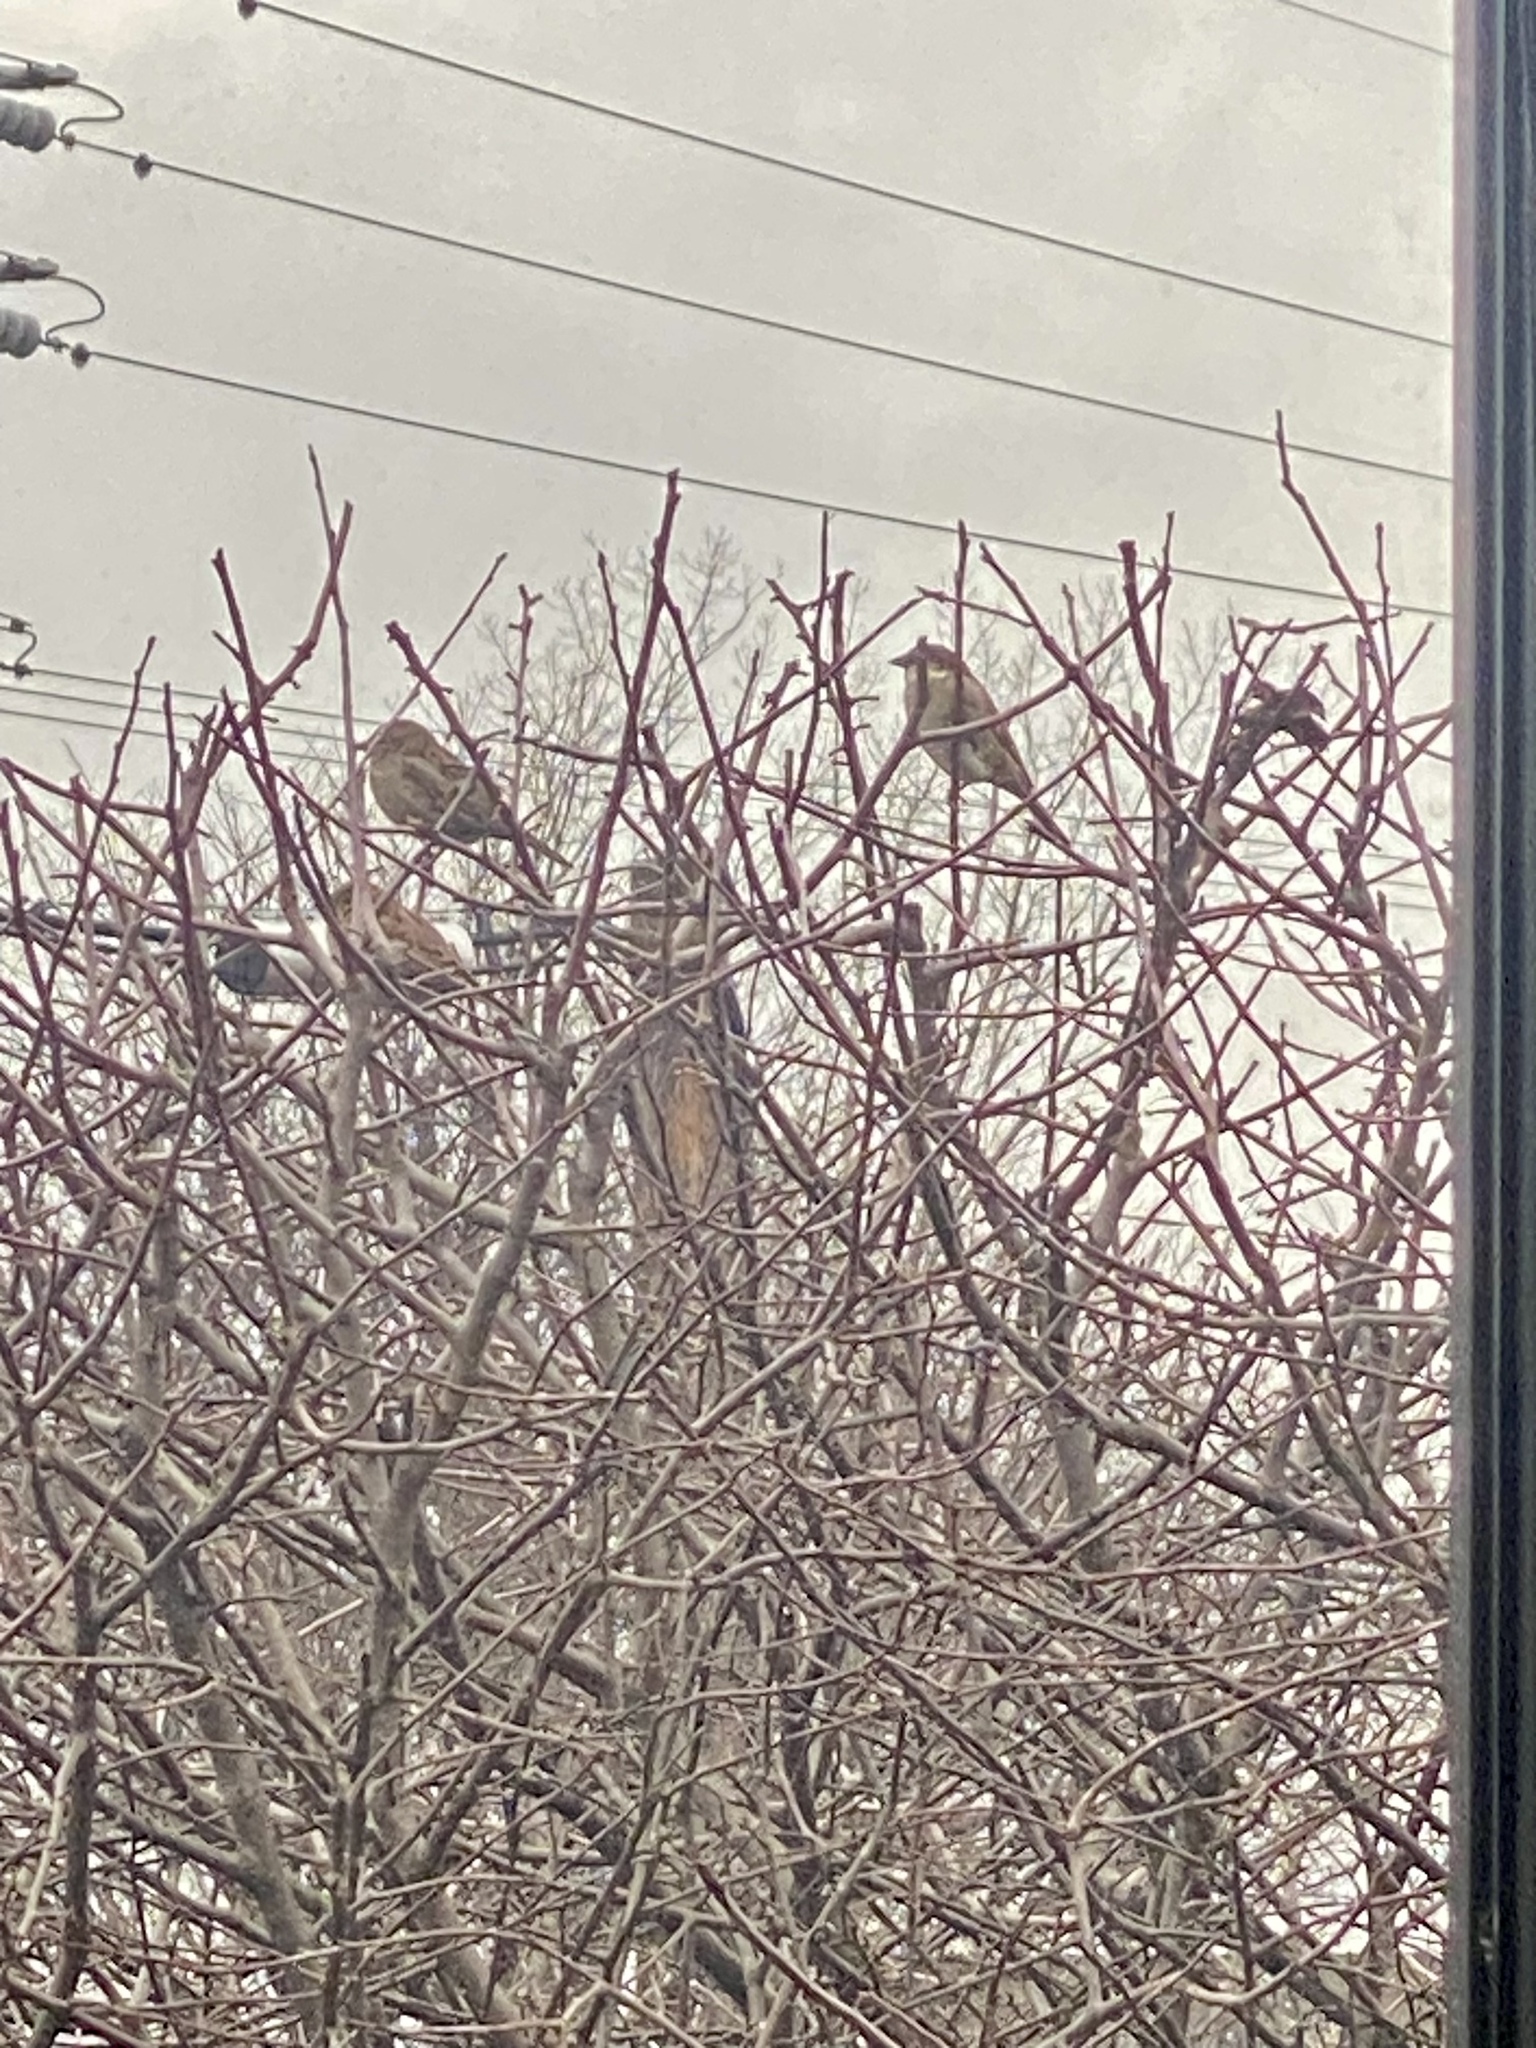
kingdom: Animalia
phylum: Chordata
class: Aves
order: Passeriformes
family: Passeridae
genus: Passer
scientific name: Passer domesticus
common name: House sparrow
